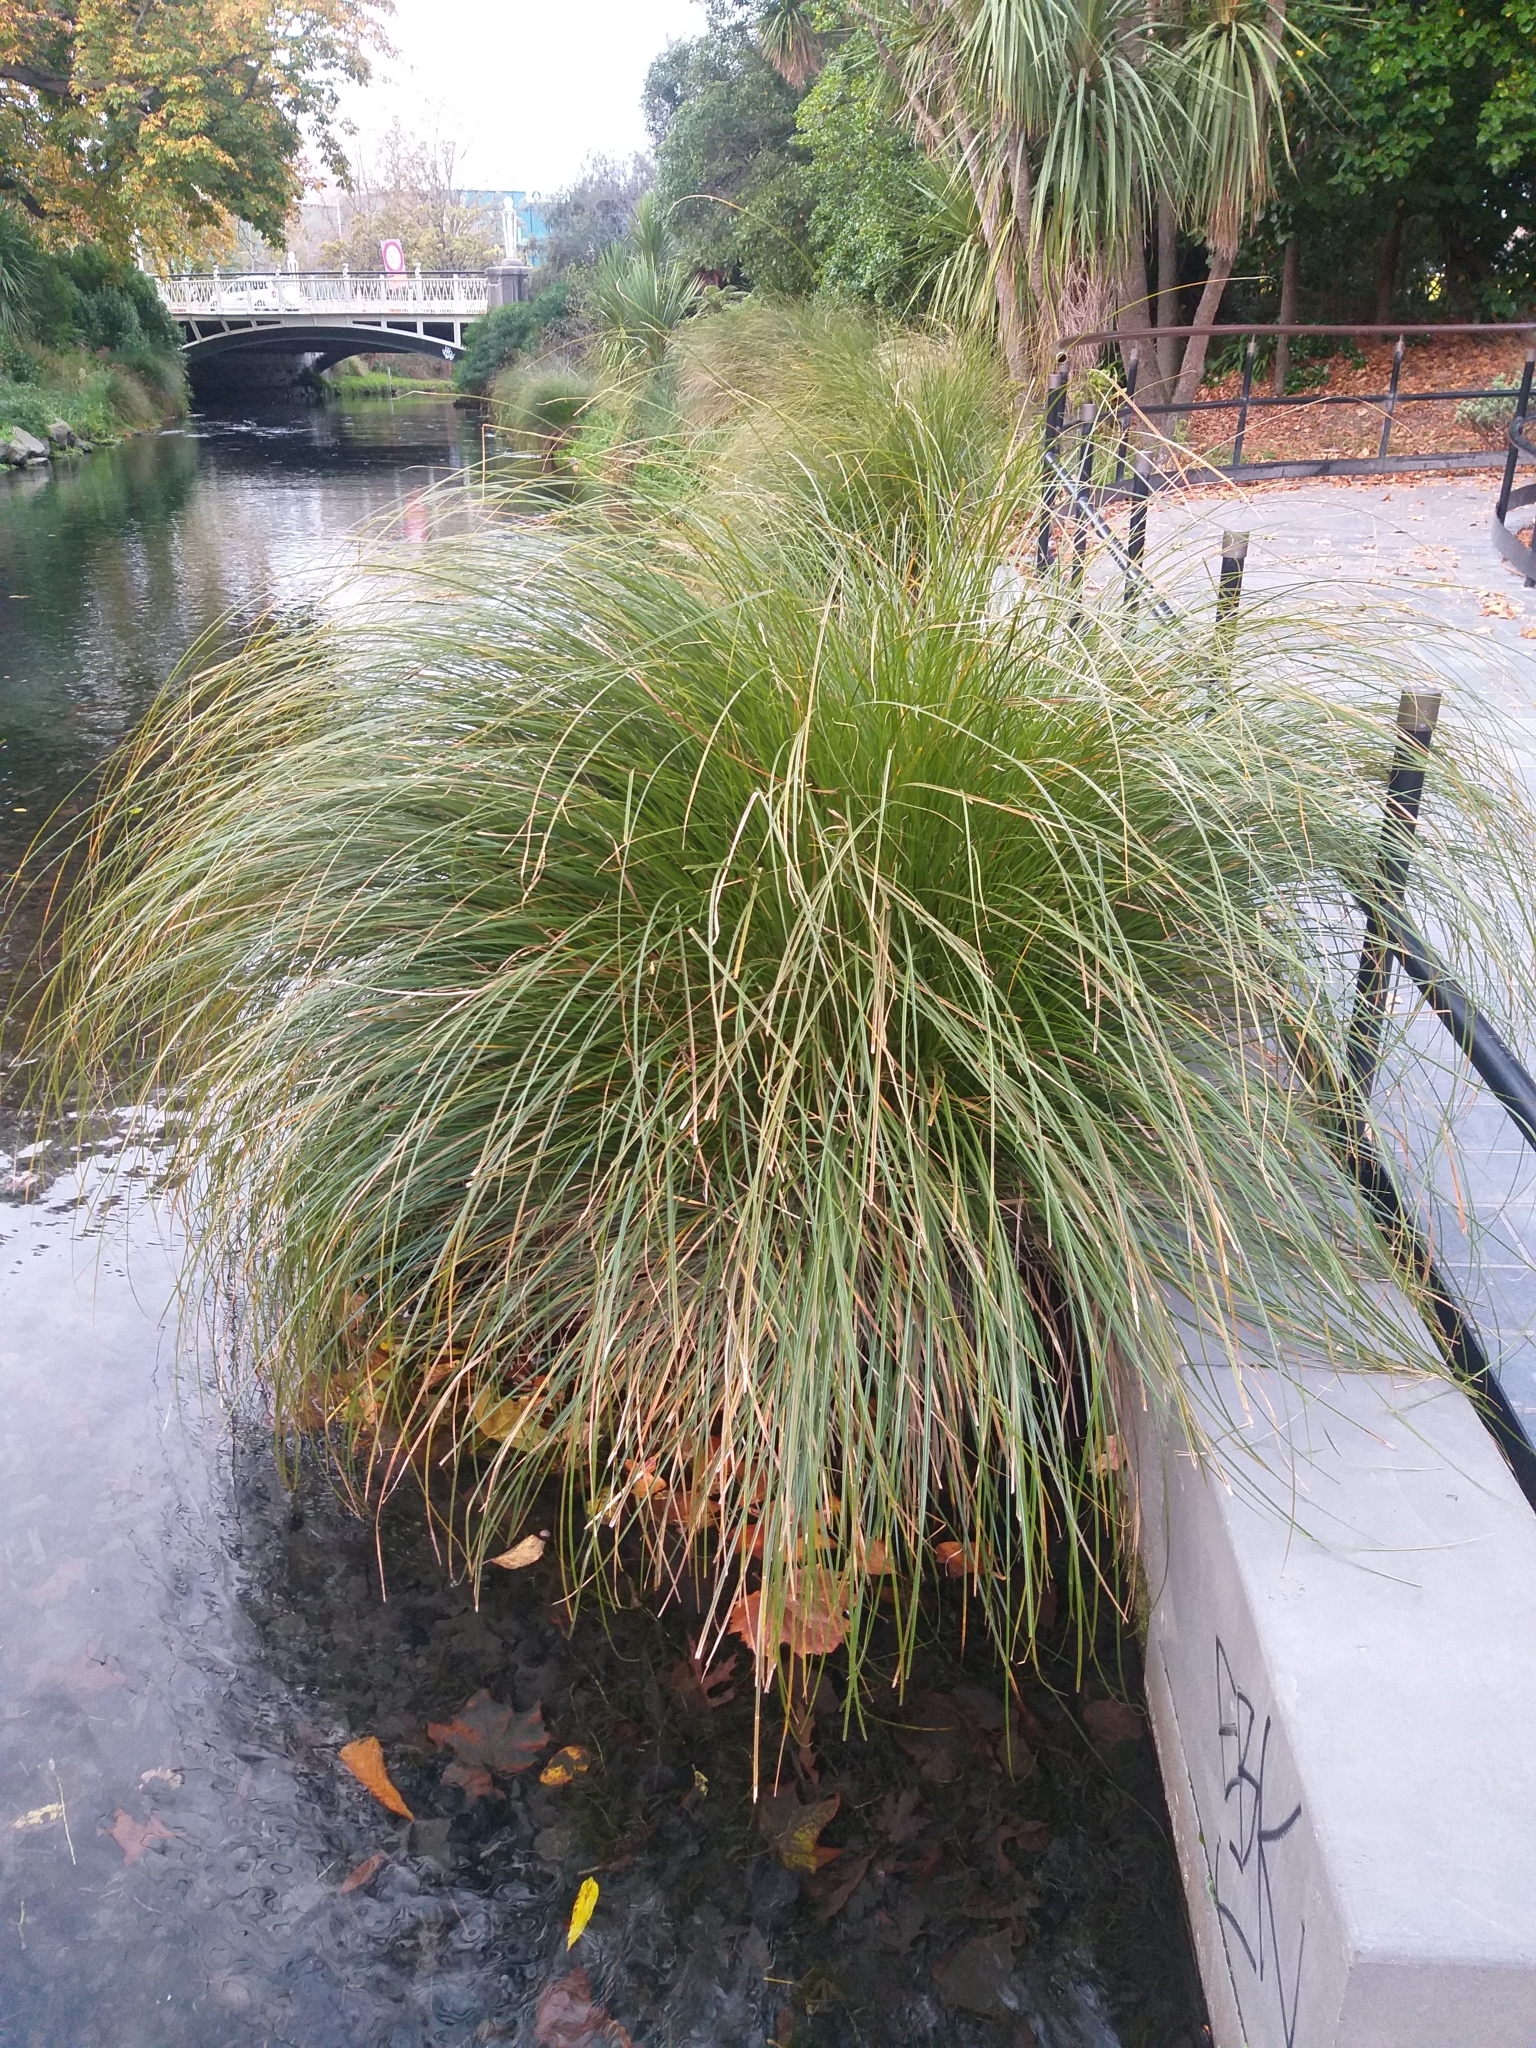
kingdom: Plantae
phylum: Tracheophyta
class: Liliopsida
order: Poales
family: Cyperaceae
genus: Carex
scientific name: Carex secta
